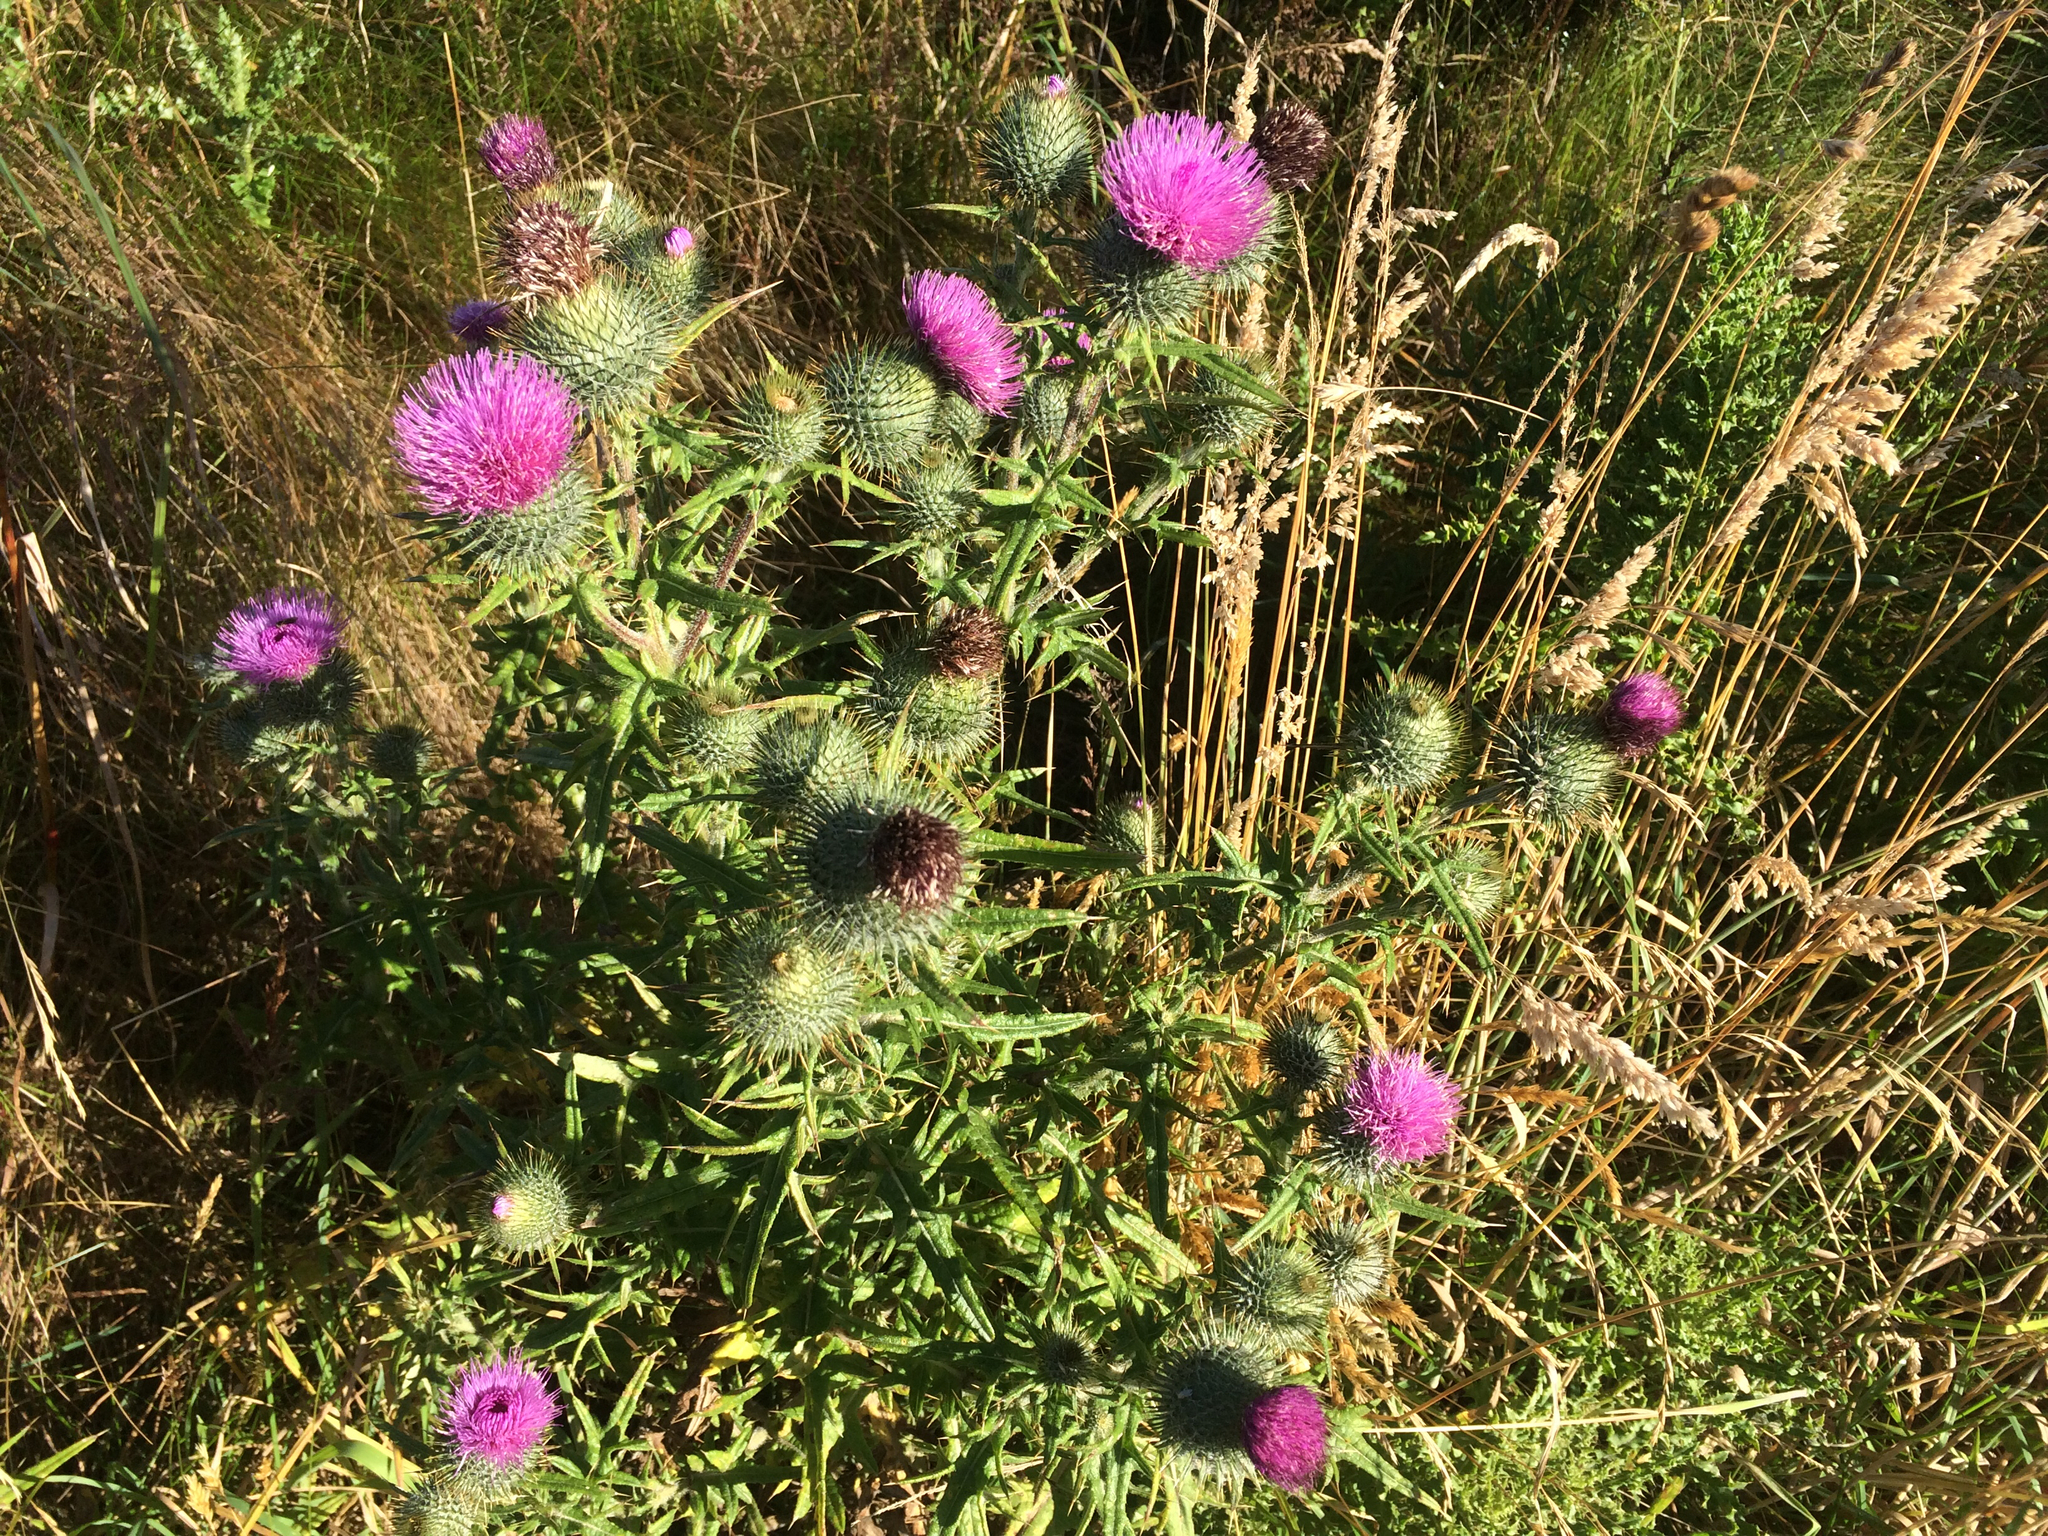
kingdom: Plantae
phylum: Tracheophyta
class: Magnoliopsida
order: Asterales
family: Asteraceae
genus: Cirsium
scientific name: Cirsium vulgare
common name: Bull thistle
